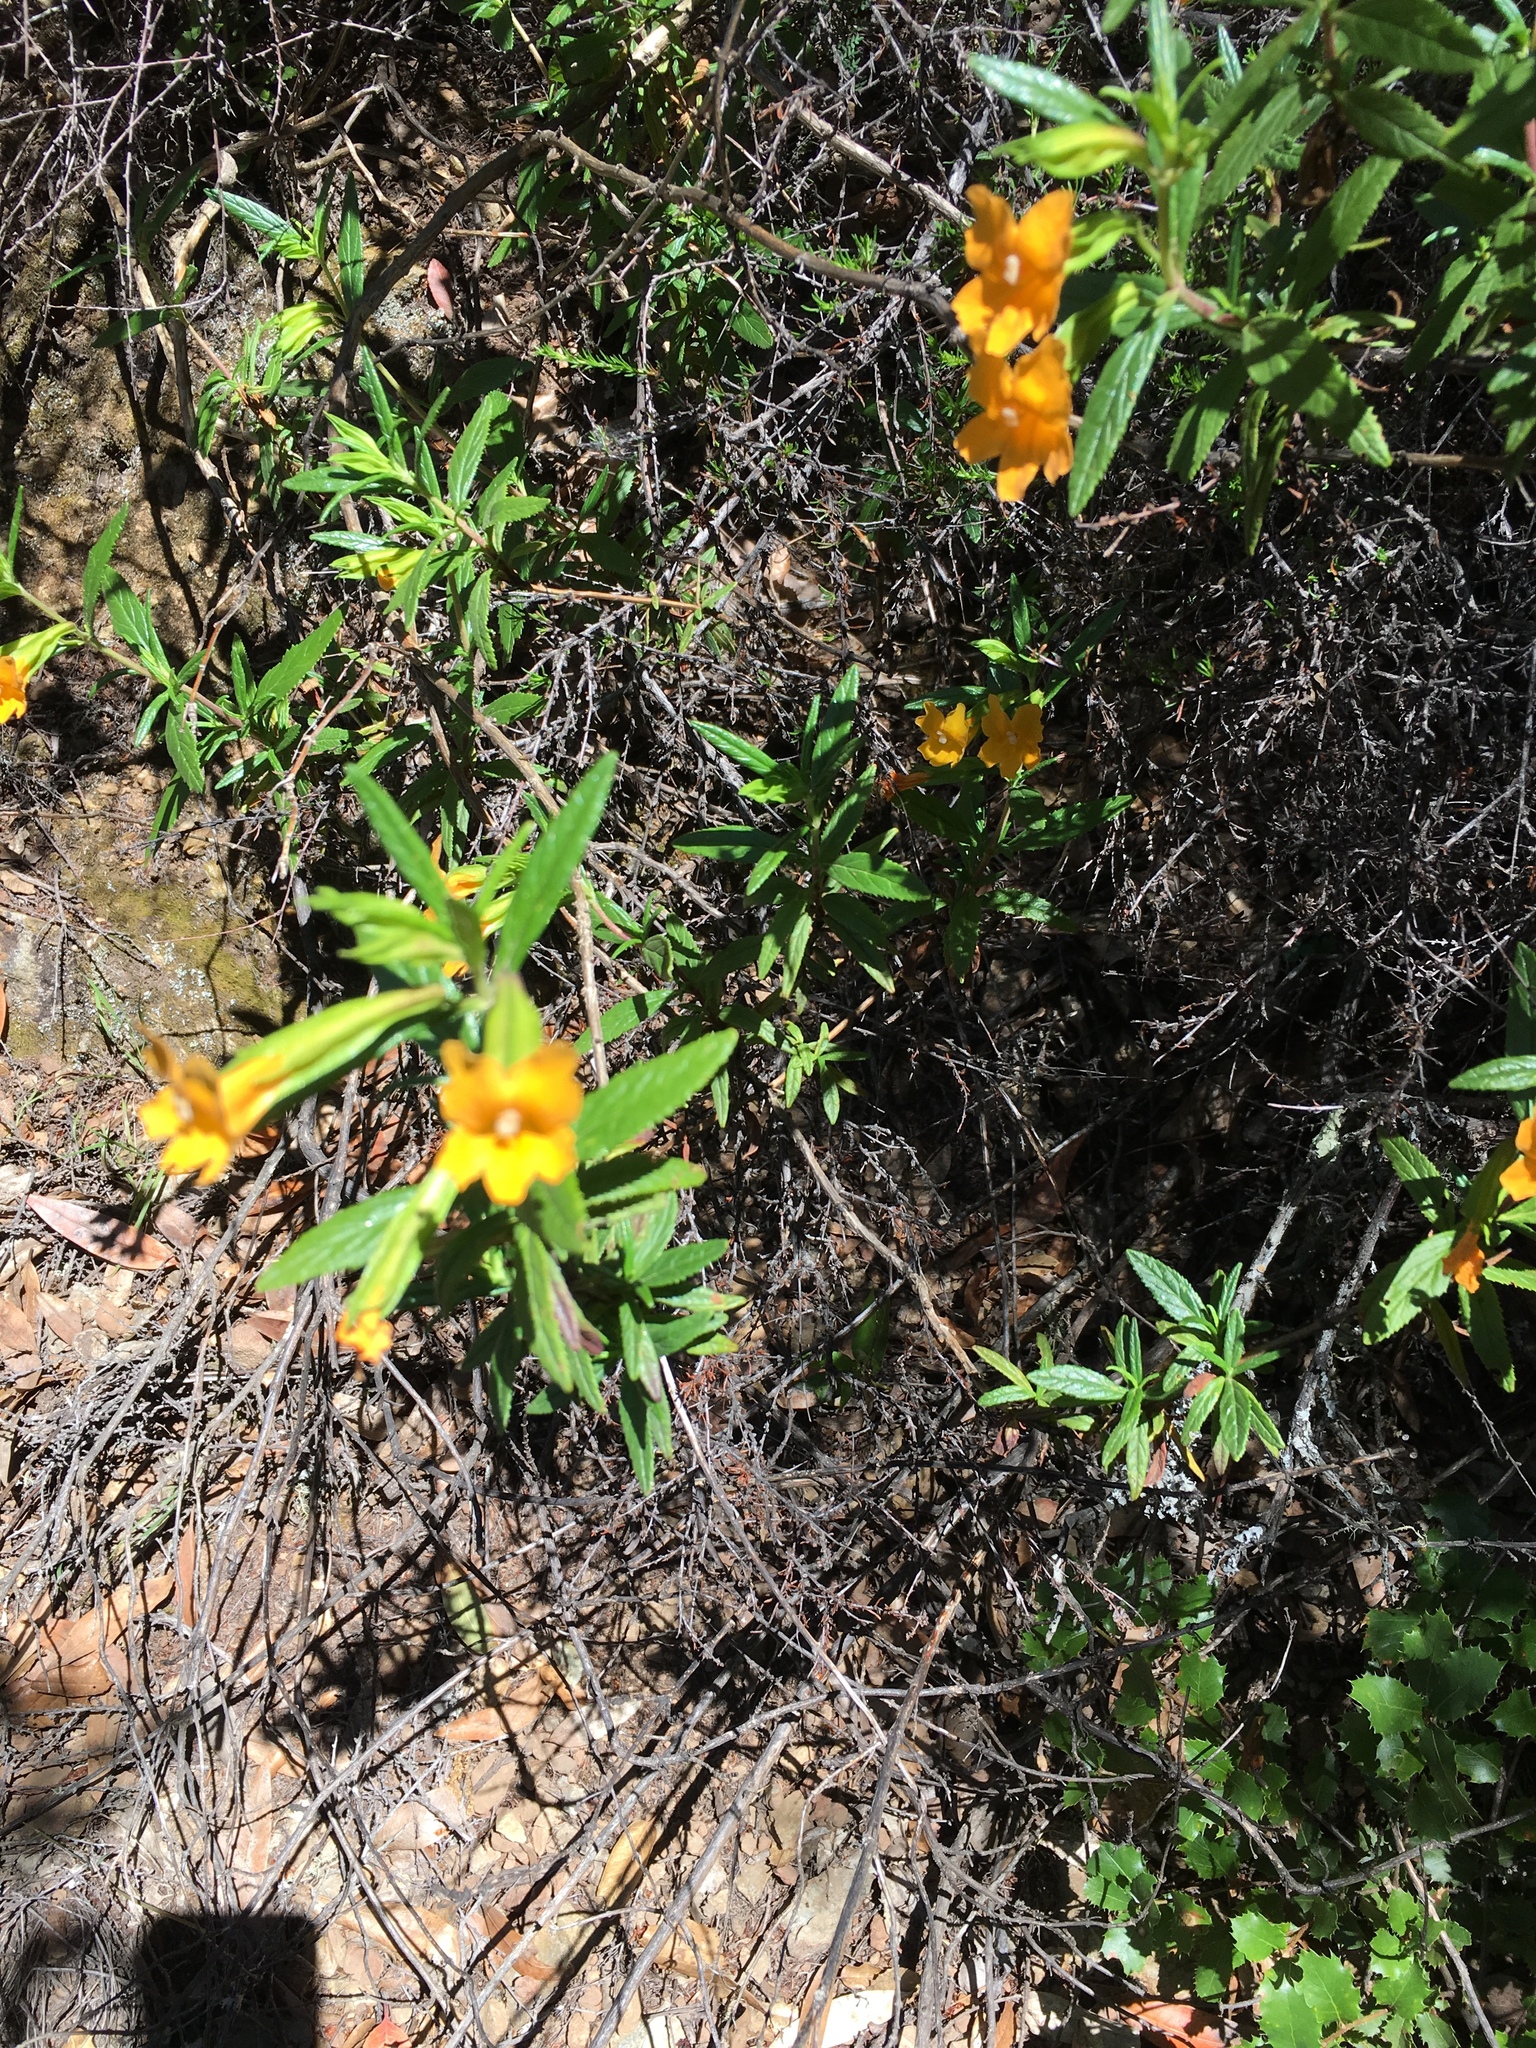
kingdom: Plantae
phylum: Tracheophyta
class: Magnoliopsida
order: Lamiales
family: Phrymaceae
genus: Diplacus
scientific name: Diplacus aurantiacus
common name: Bush monkey-flower
